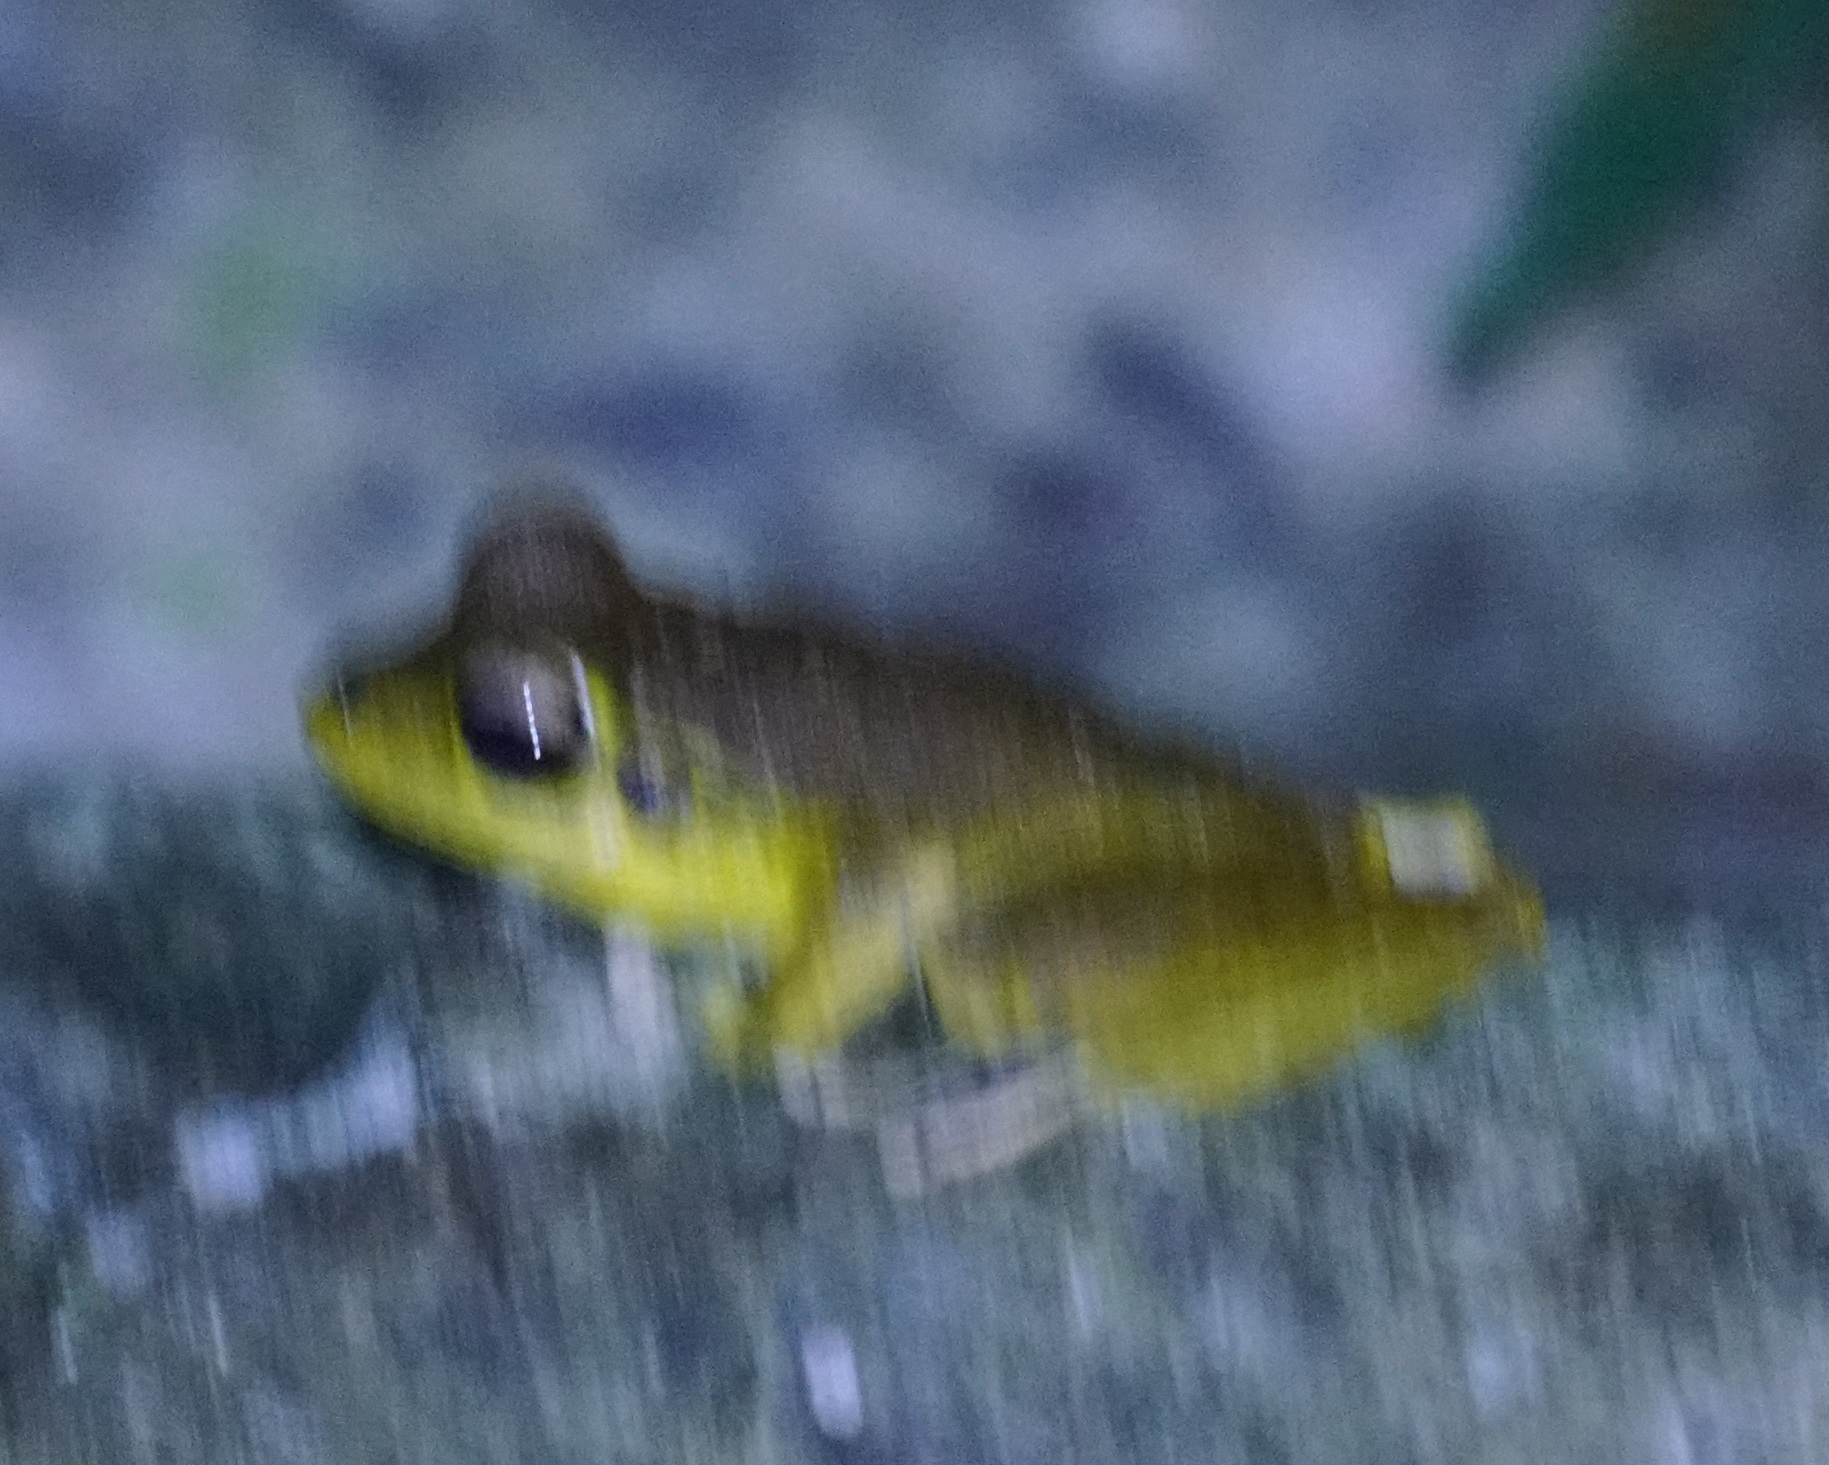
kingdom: Animalia
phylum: Chordata
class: Amphibia
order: Anura
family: Hylidae
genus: Ranoidea
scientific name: Ranoidea
